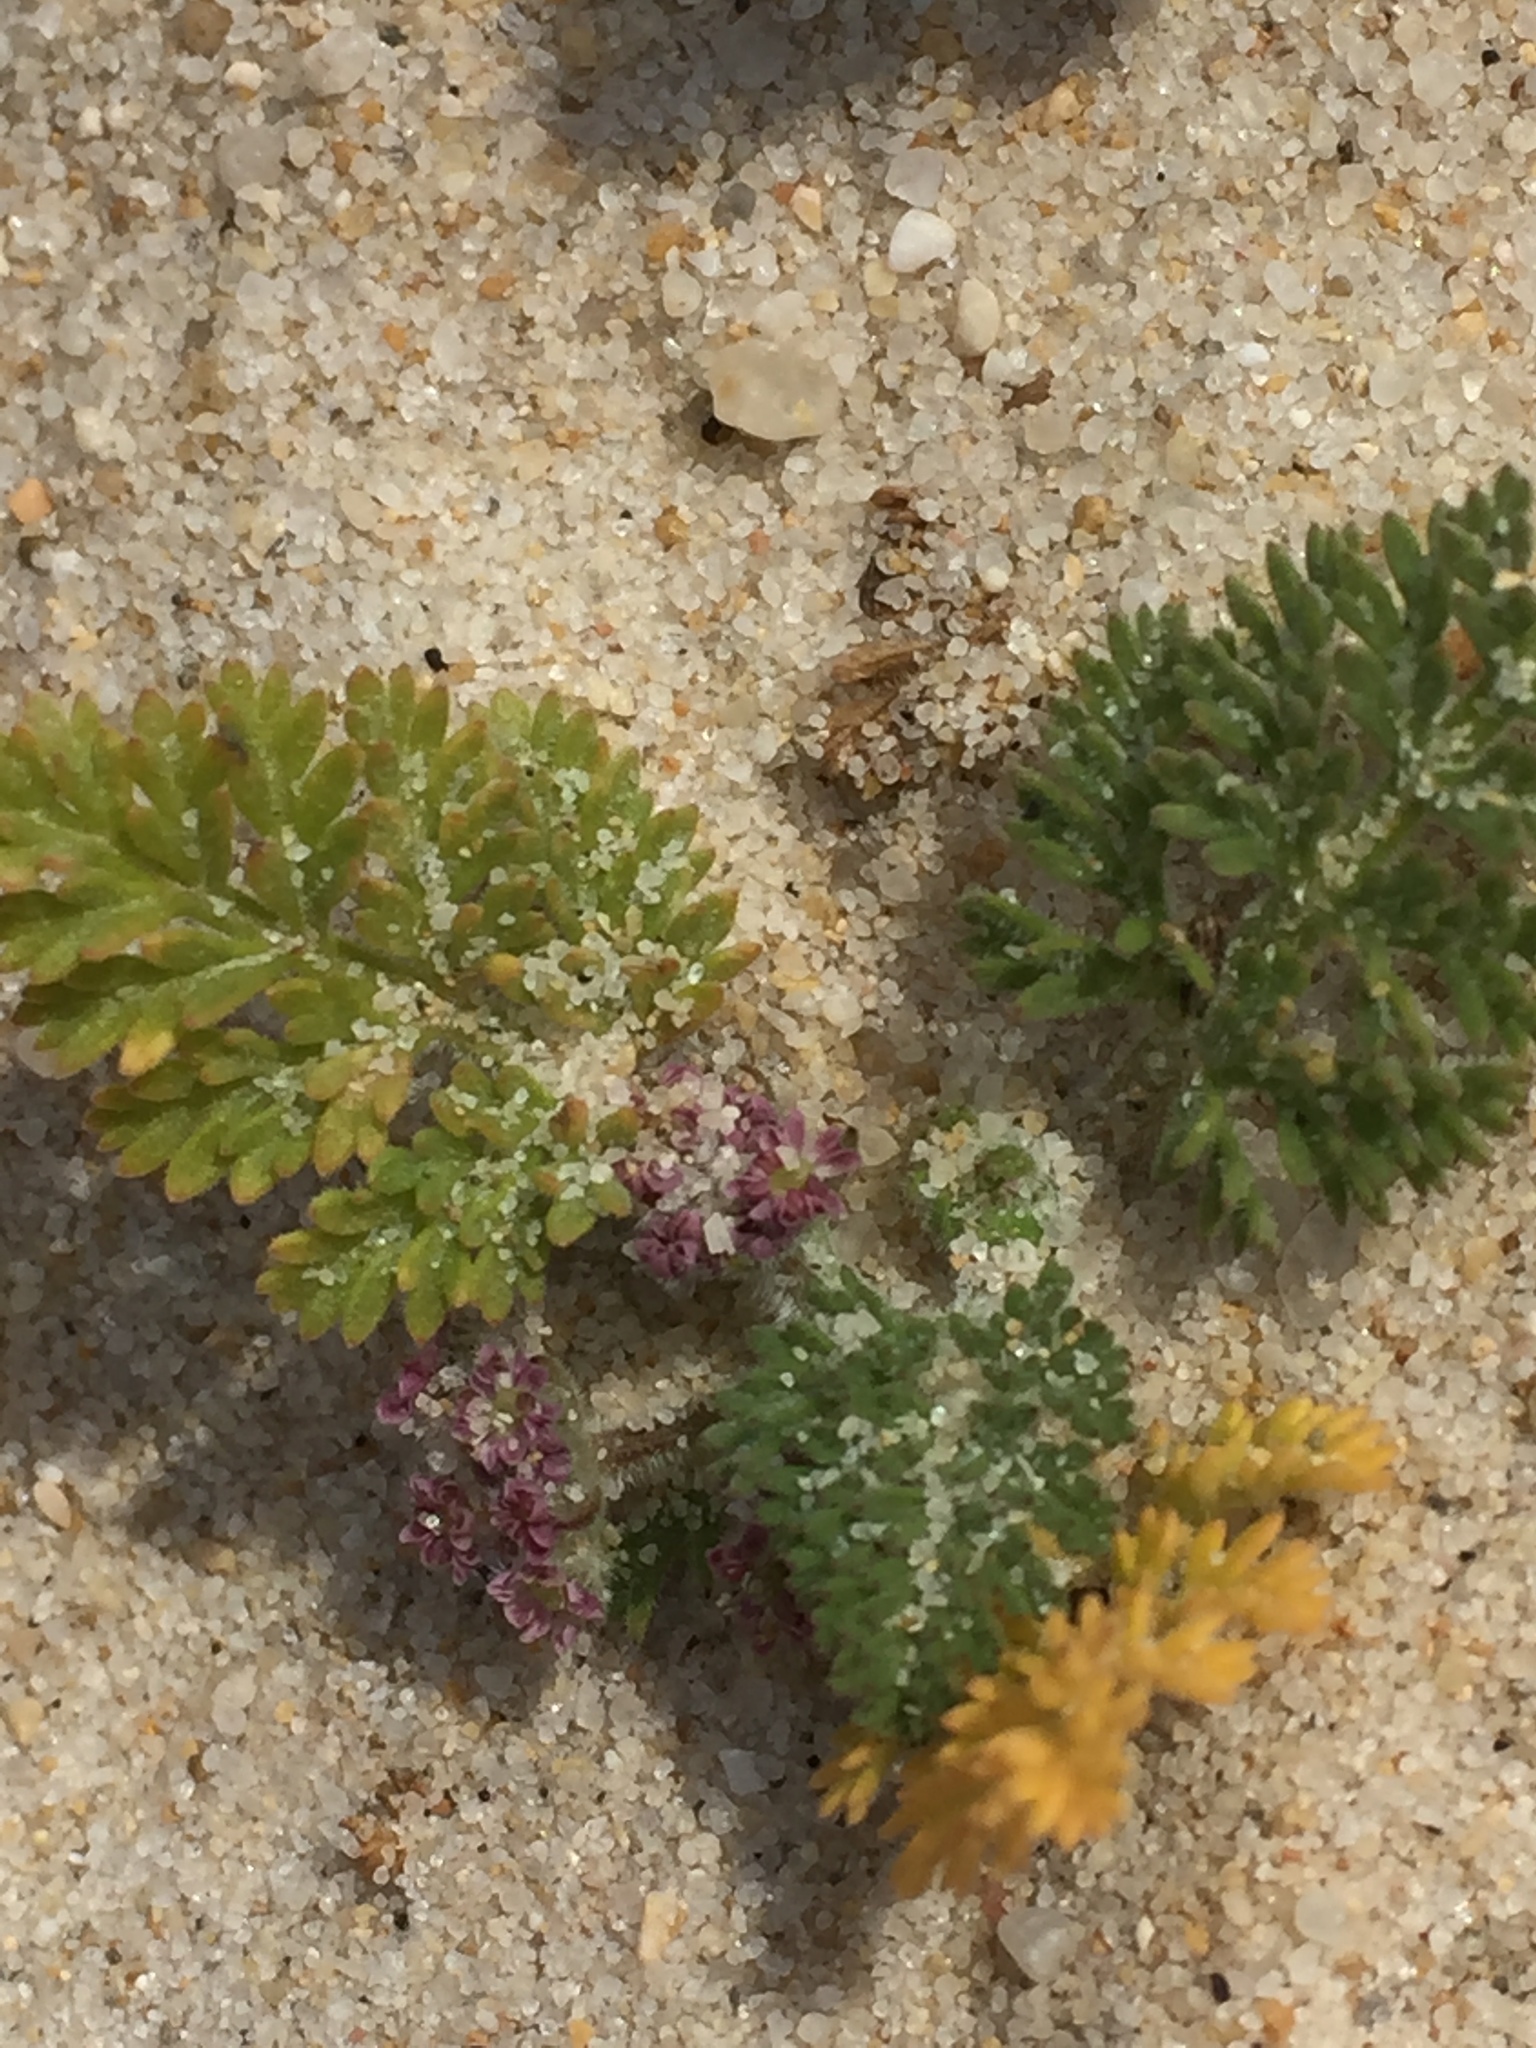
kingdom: Plantae
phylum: Tracheophyta
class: Magnoliopsida
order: Apiales
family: Apiaceae
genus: Daucus
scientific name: Daucus pumilus
